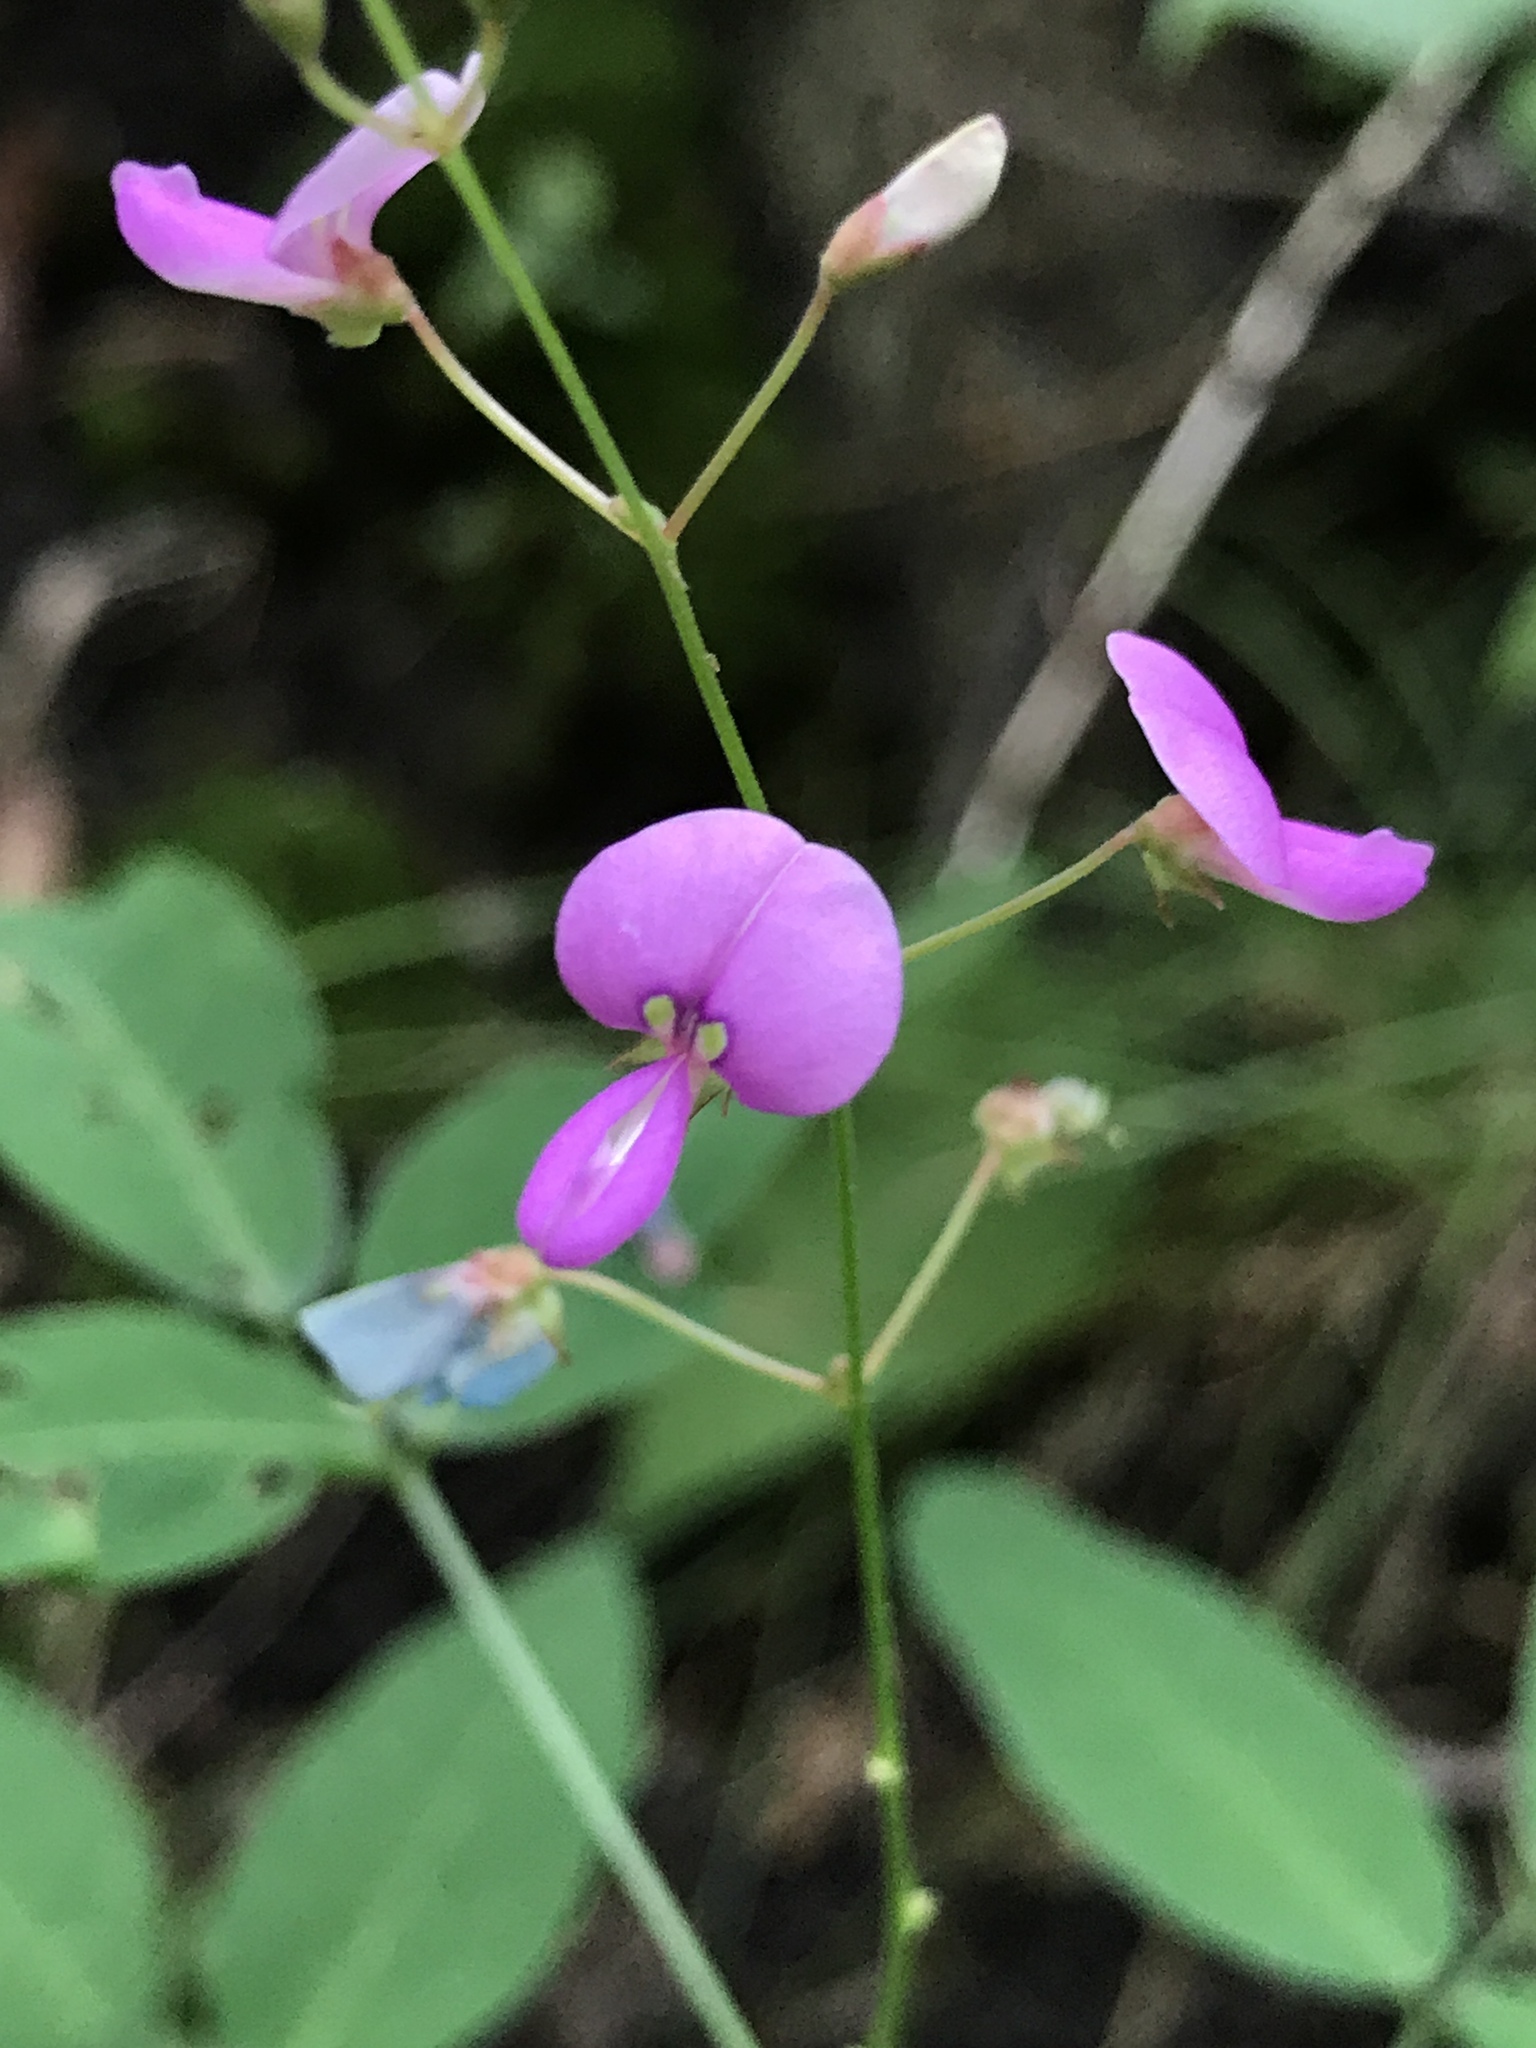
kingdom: Plantae
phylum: Tracheophyta
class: Magnoliopsida
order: Fabales
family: Fabaceae
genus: Desmodium
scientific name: Desmodium paniculatum
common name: Panicled tick-clover
